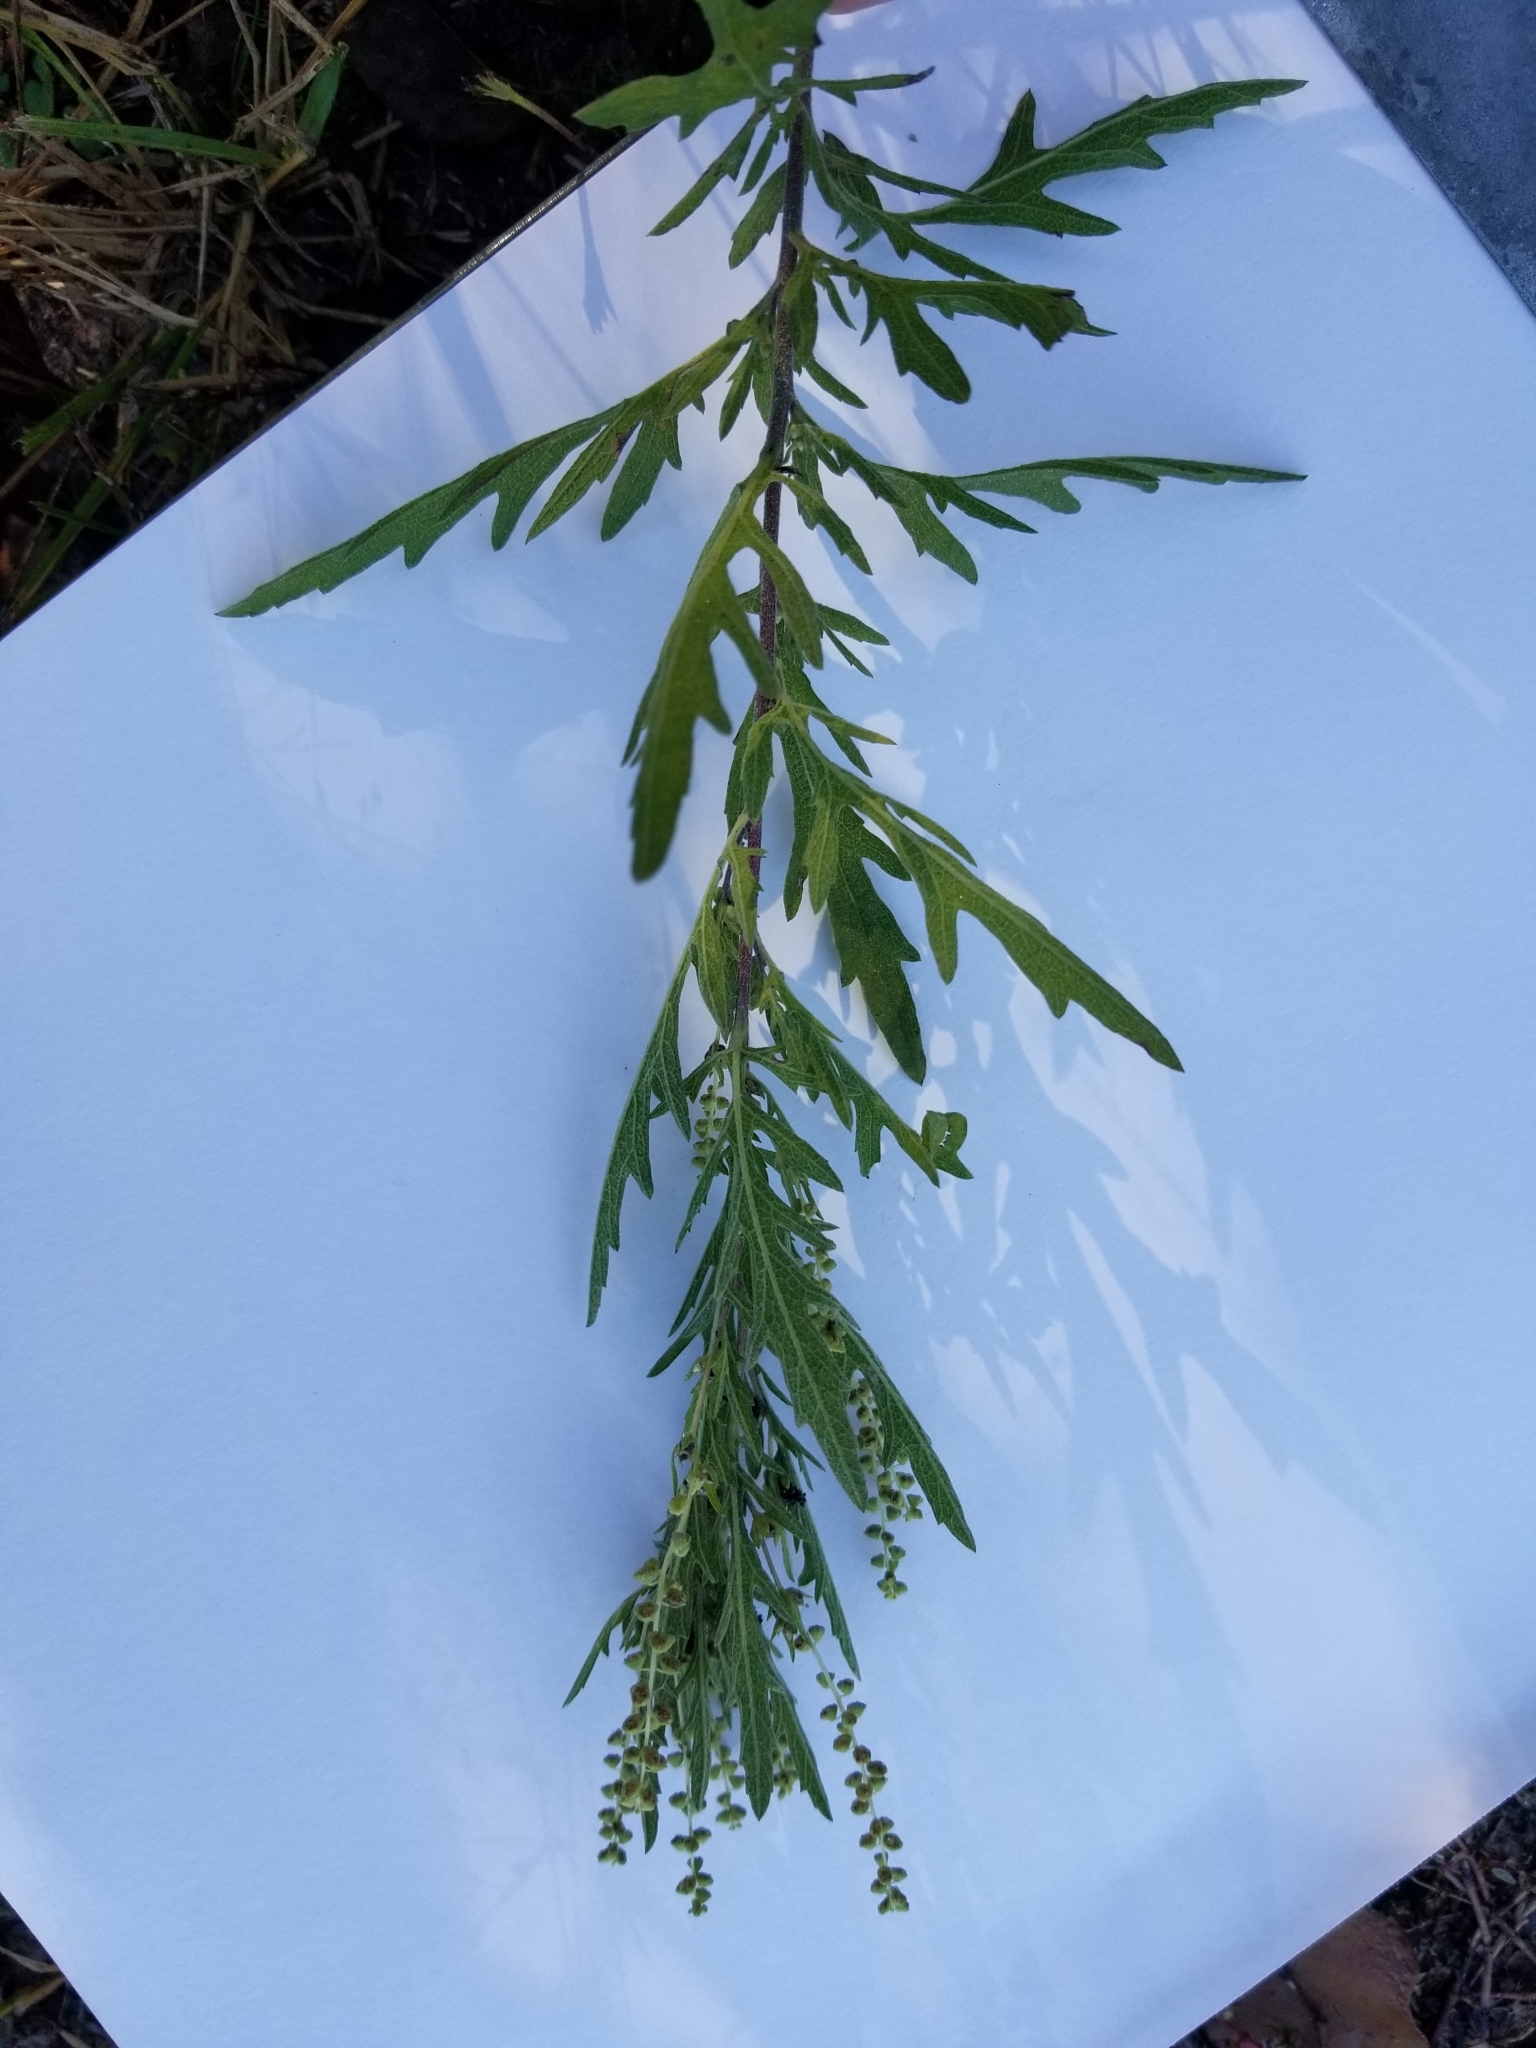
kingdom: Plantae
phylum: Tracheophyta
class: Magnoliopsida
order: Asterales
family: Asteraceae
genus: Ambrosia
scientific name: Ambrosia psilostachya
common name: Perennial ragweed
